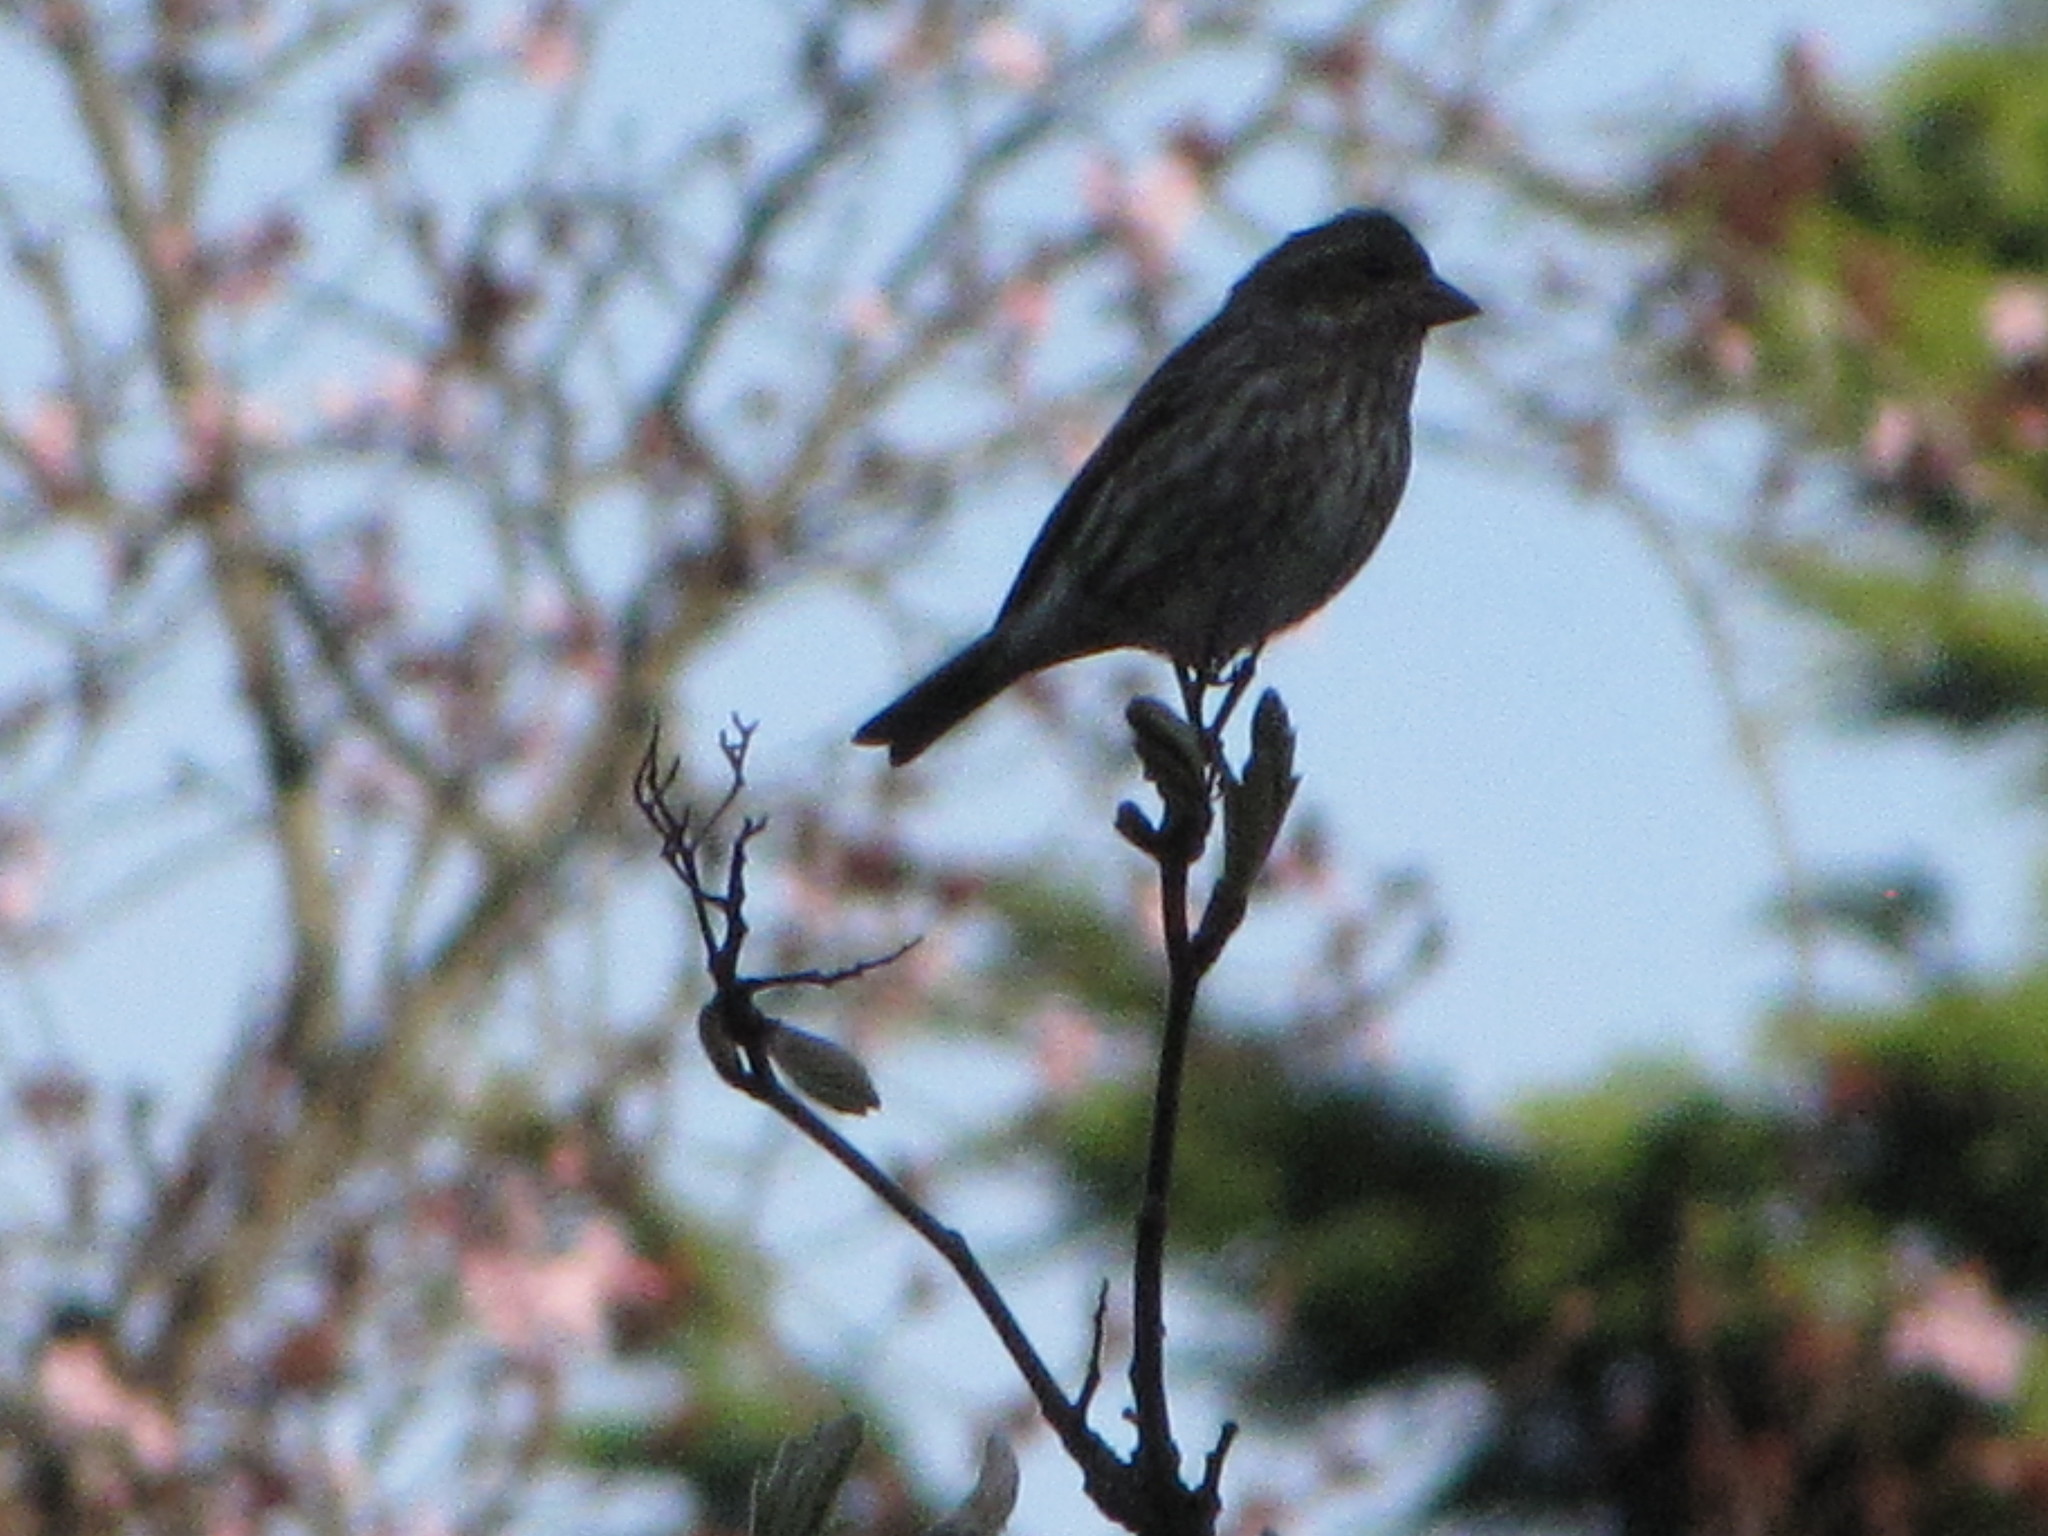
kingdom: Animalia
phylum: Chordata
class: Aves
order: Passeriformes
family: Fringillidae
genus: Haemorhous
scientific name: Haemorhous purpureus
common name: Purple finch
